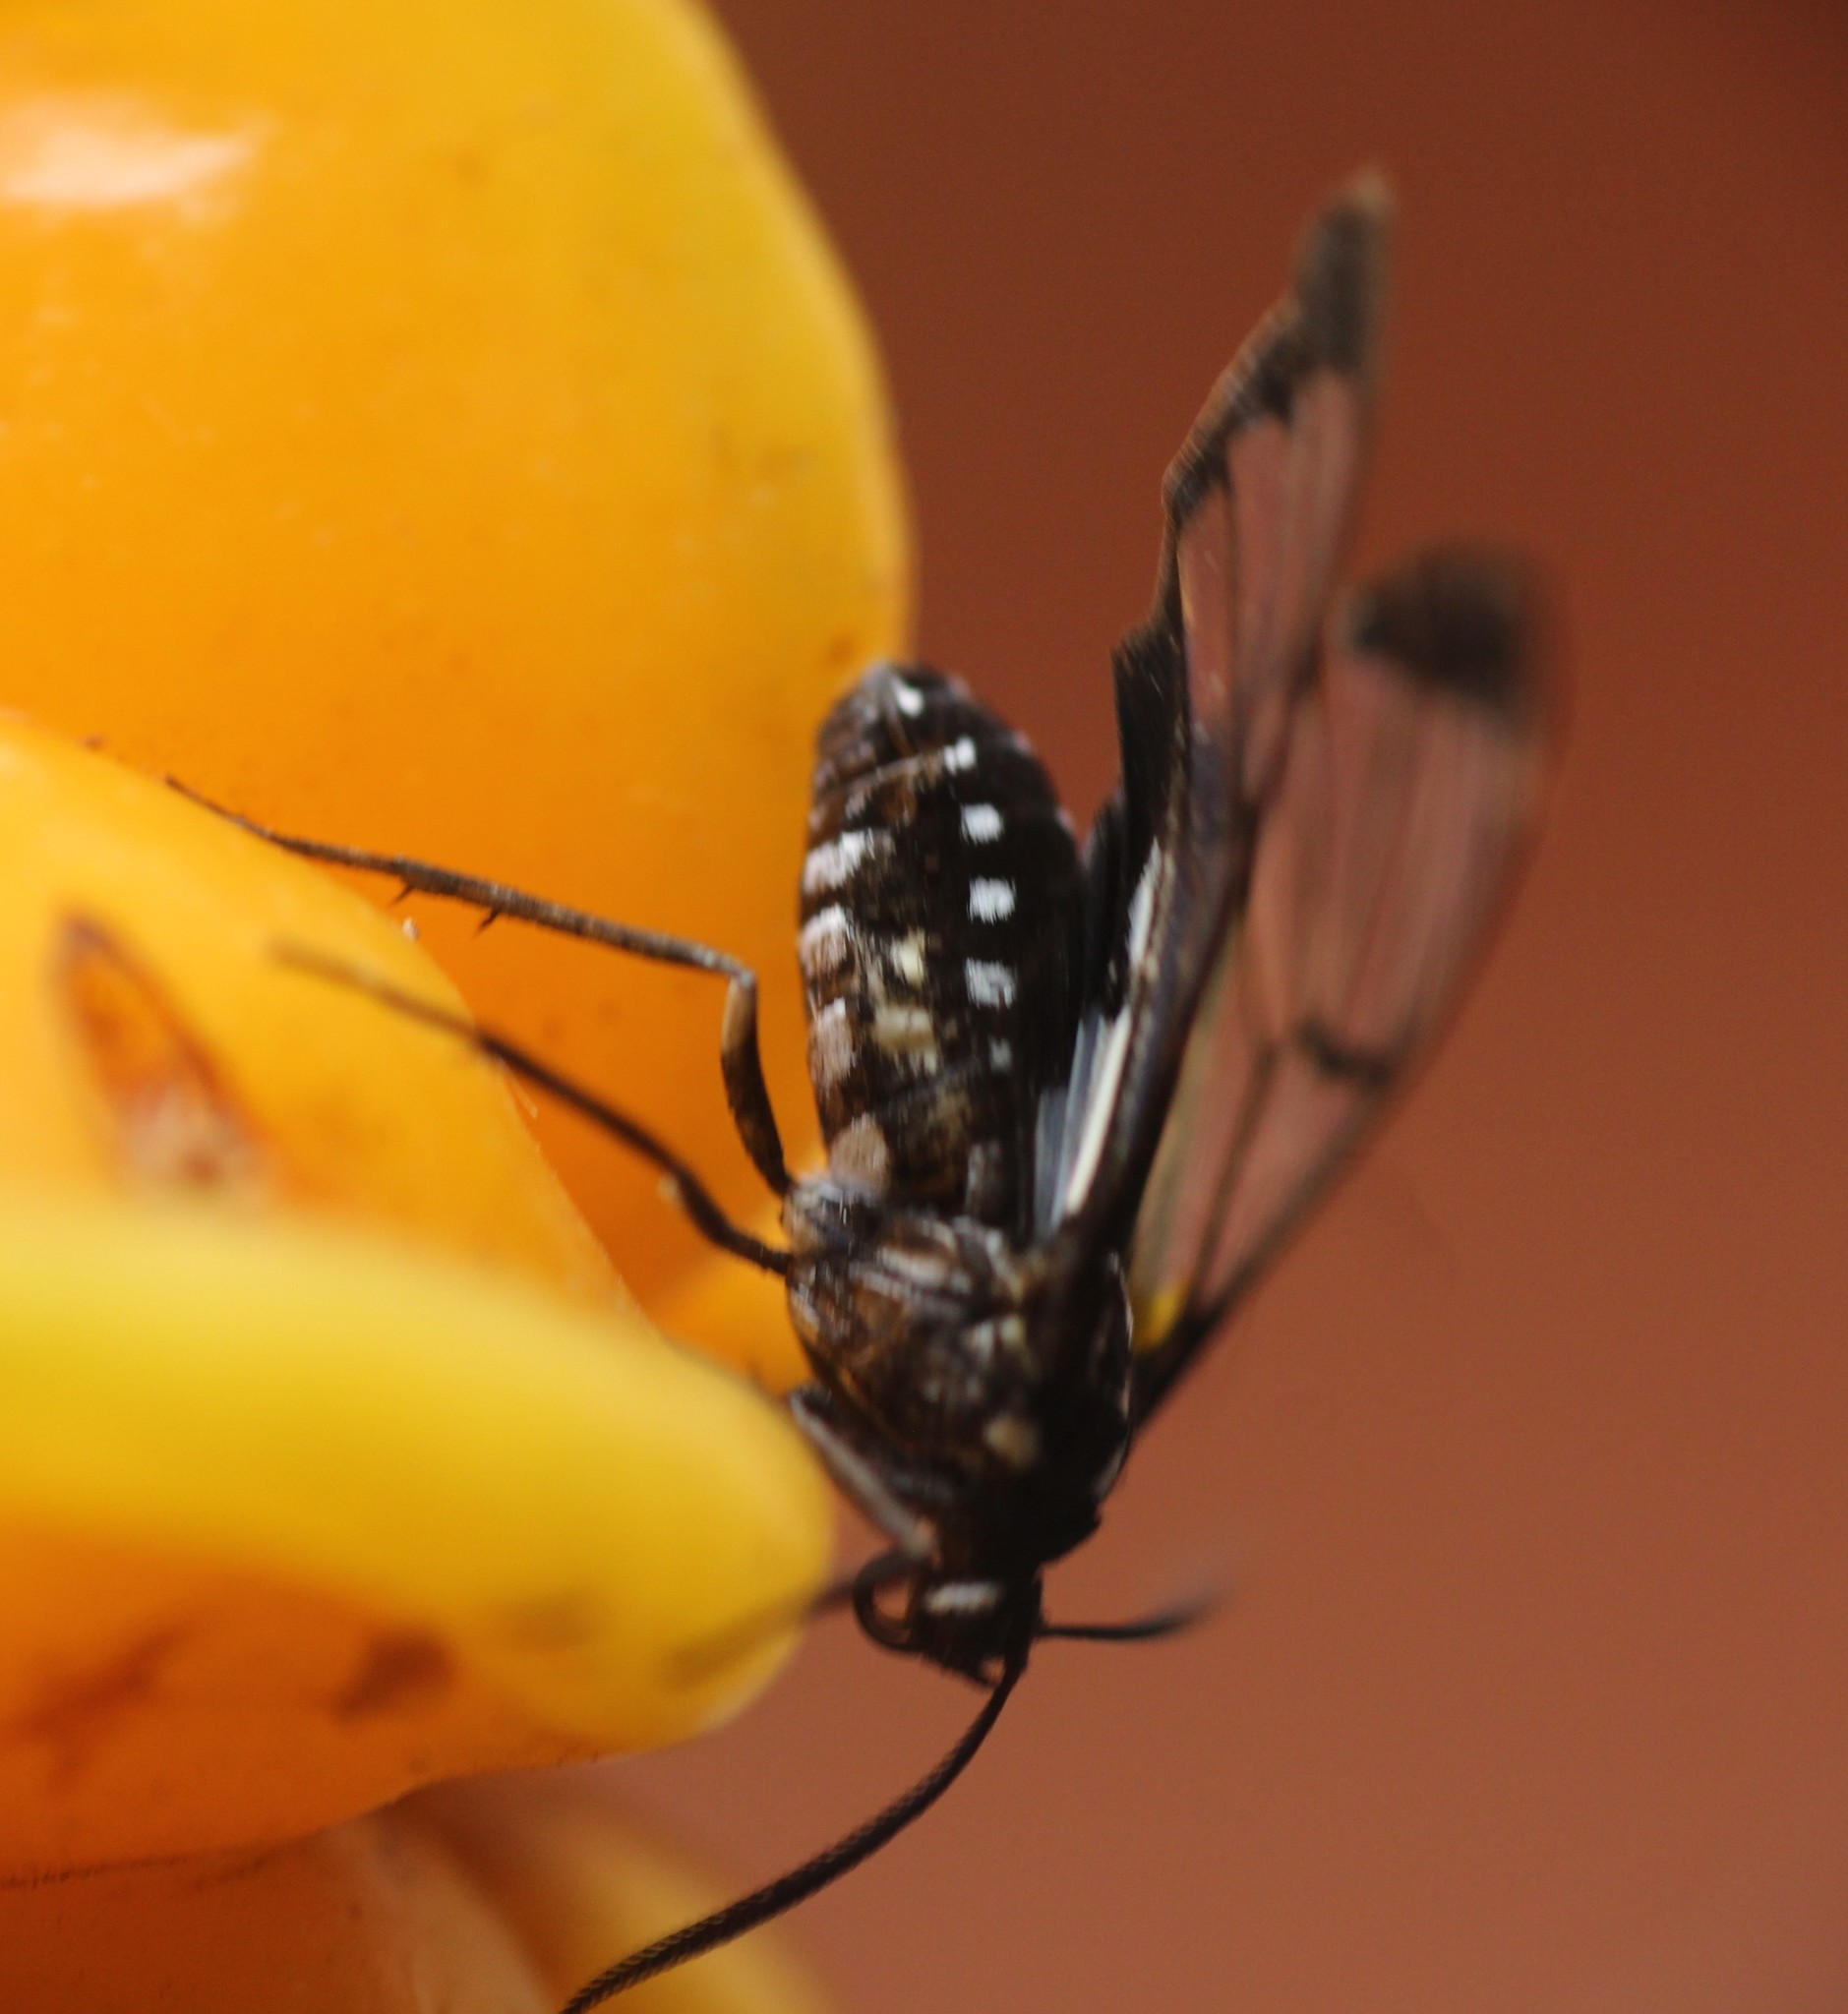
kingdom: Animalia
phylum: Arthropoda
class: Insecta
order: Lepidoptera
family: Erebidae
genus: Paraethria
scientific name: Paraethria triseriata
